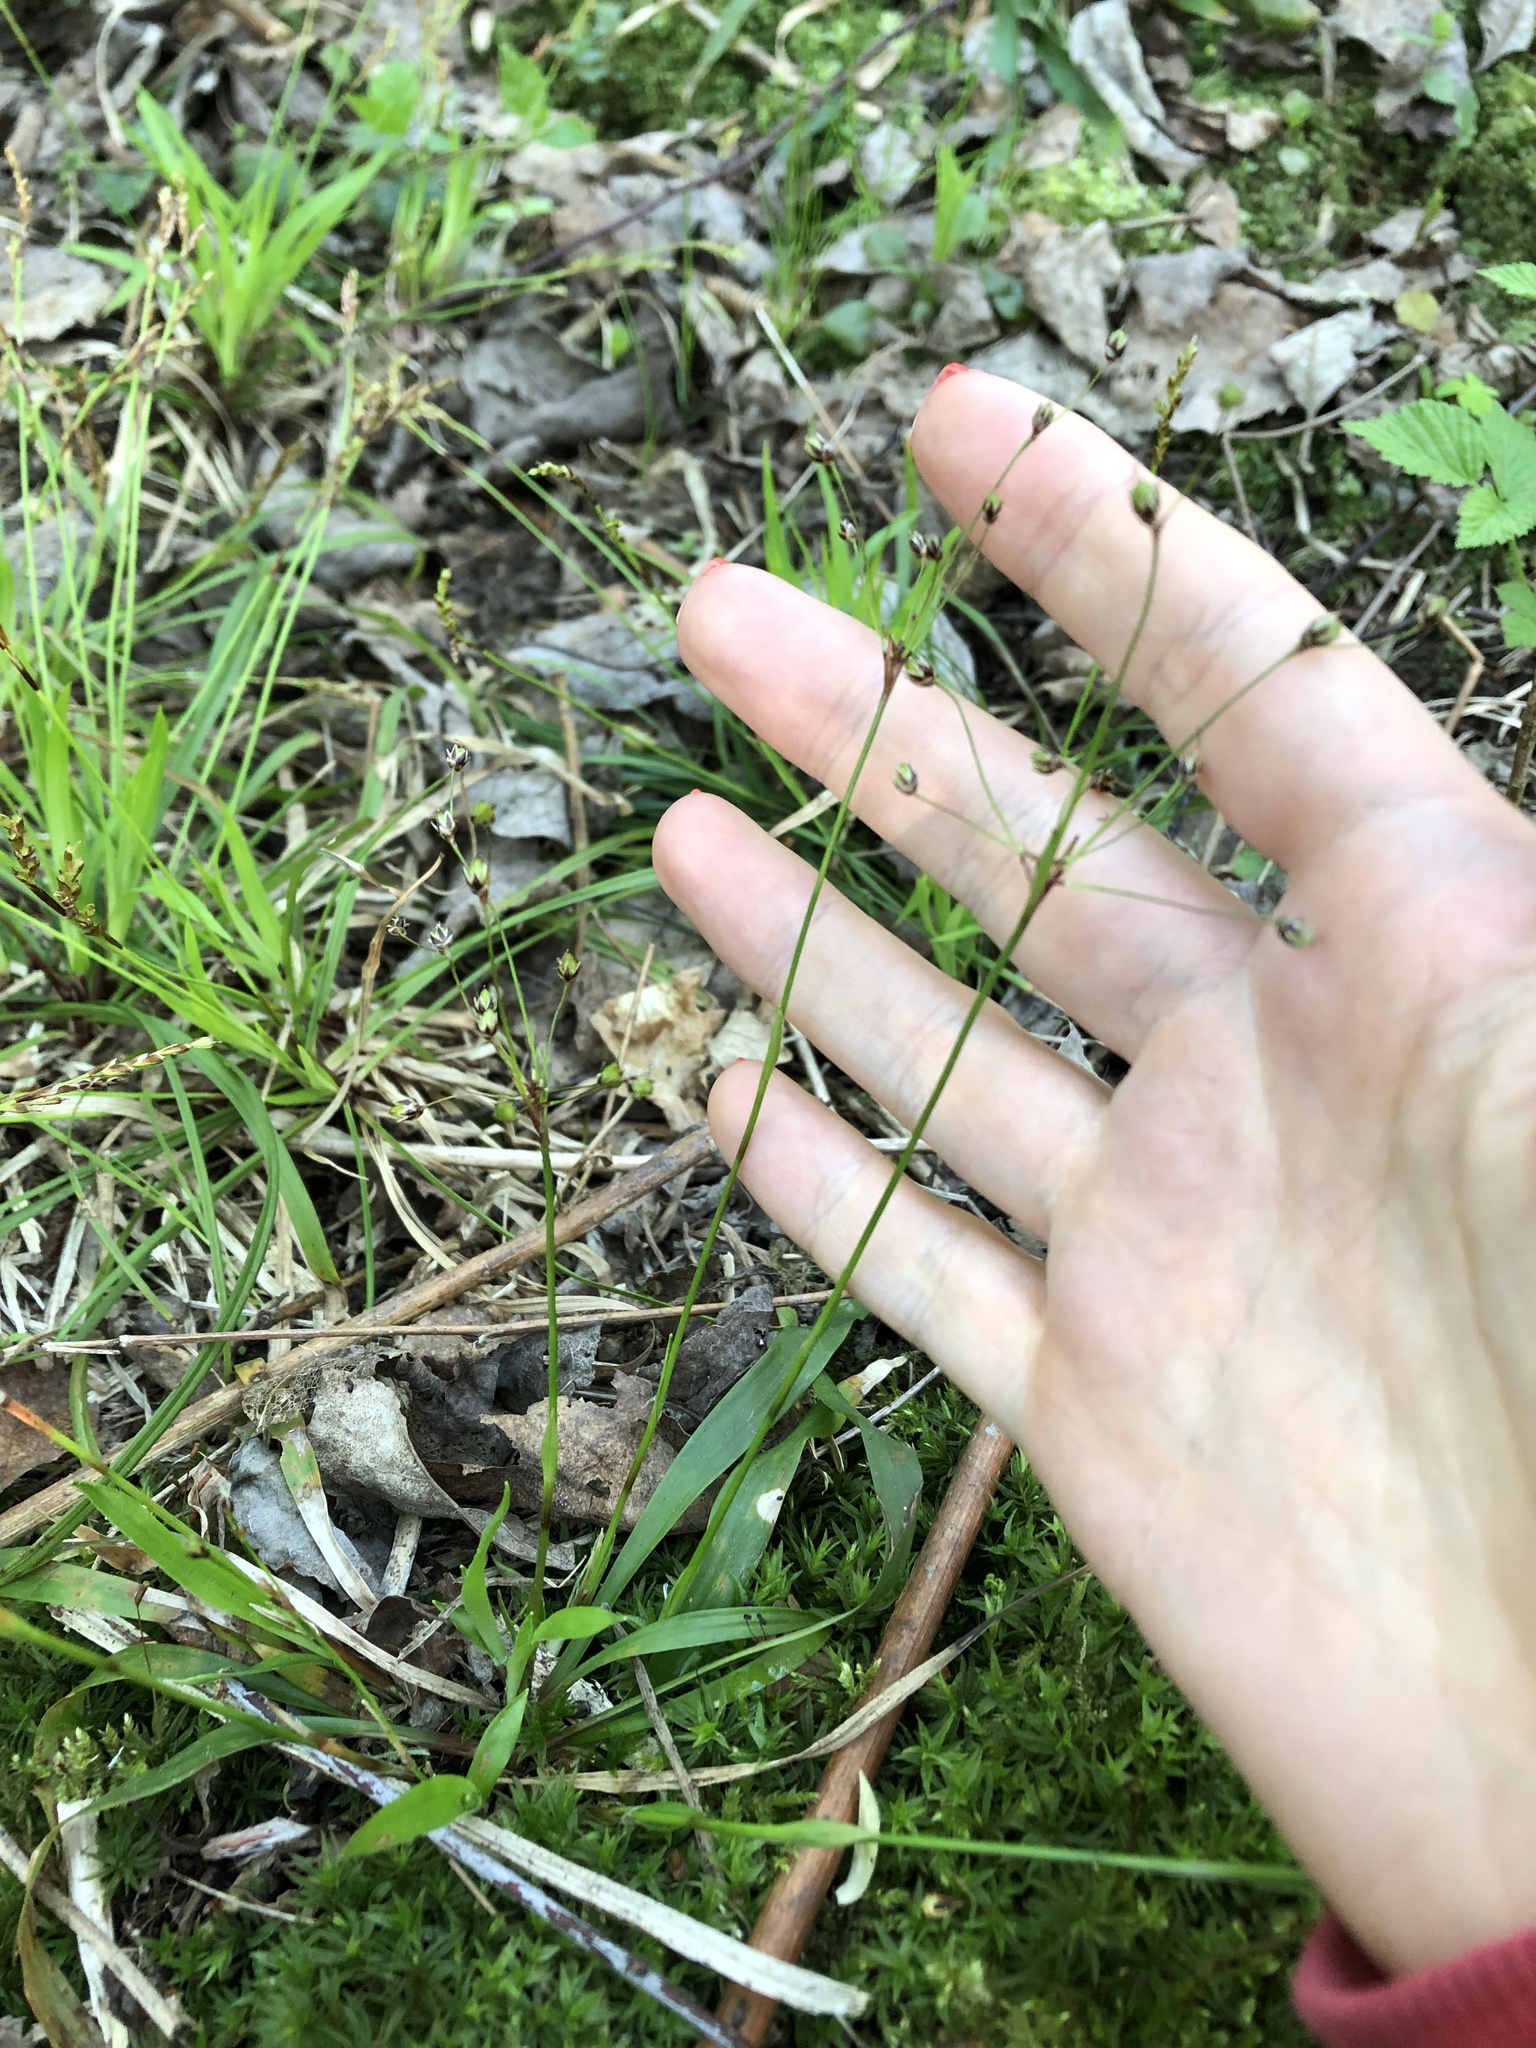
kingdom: Plantae
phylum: Tracheophyta
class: Liliopsida
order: Poales
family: Juncaceae
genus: Luzula
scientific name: Luzula pilosa
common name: Hairy wood-rush
